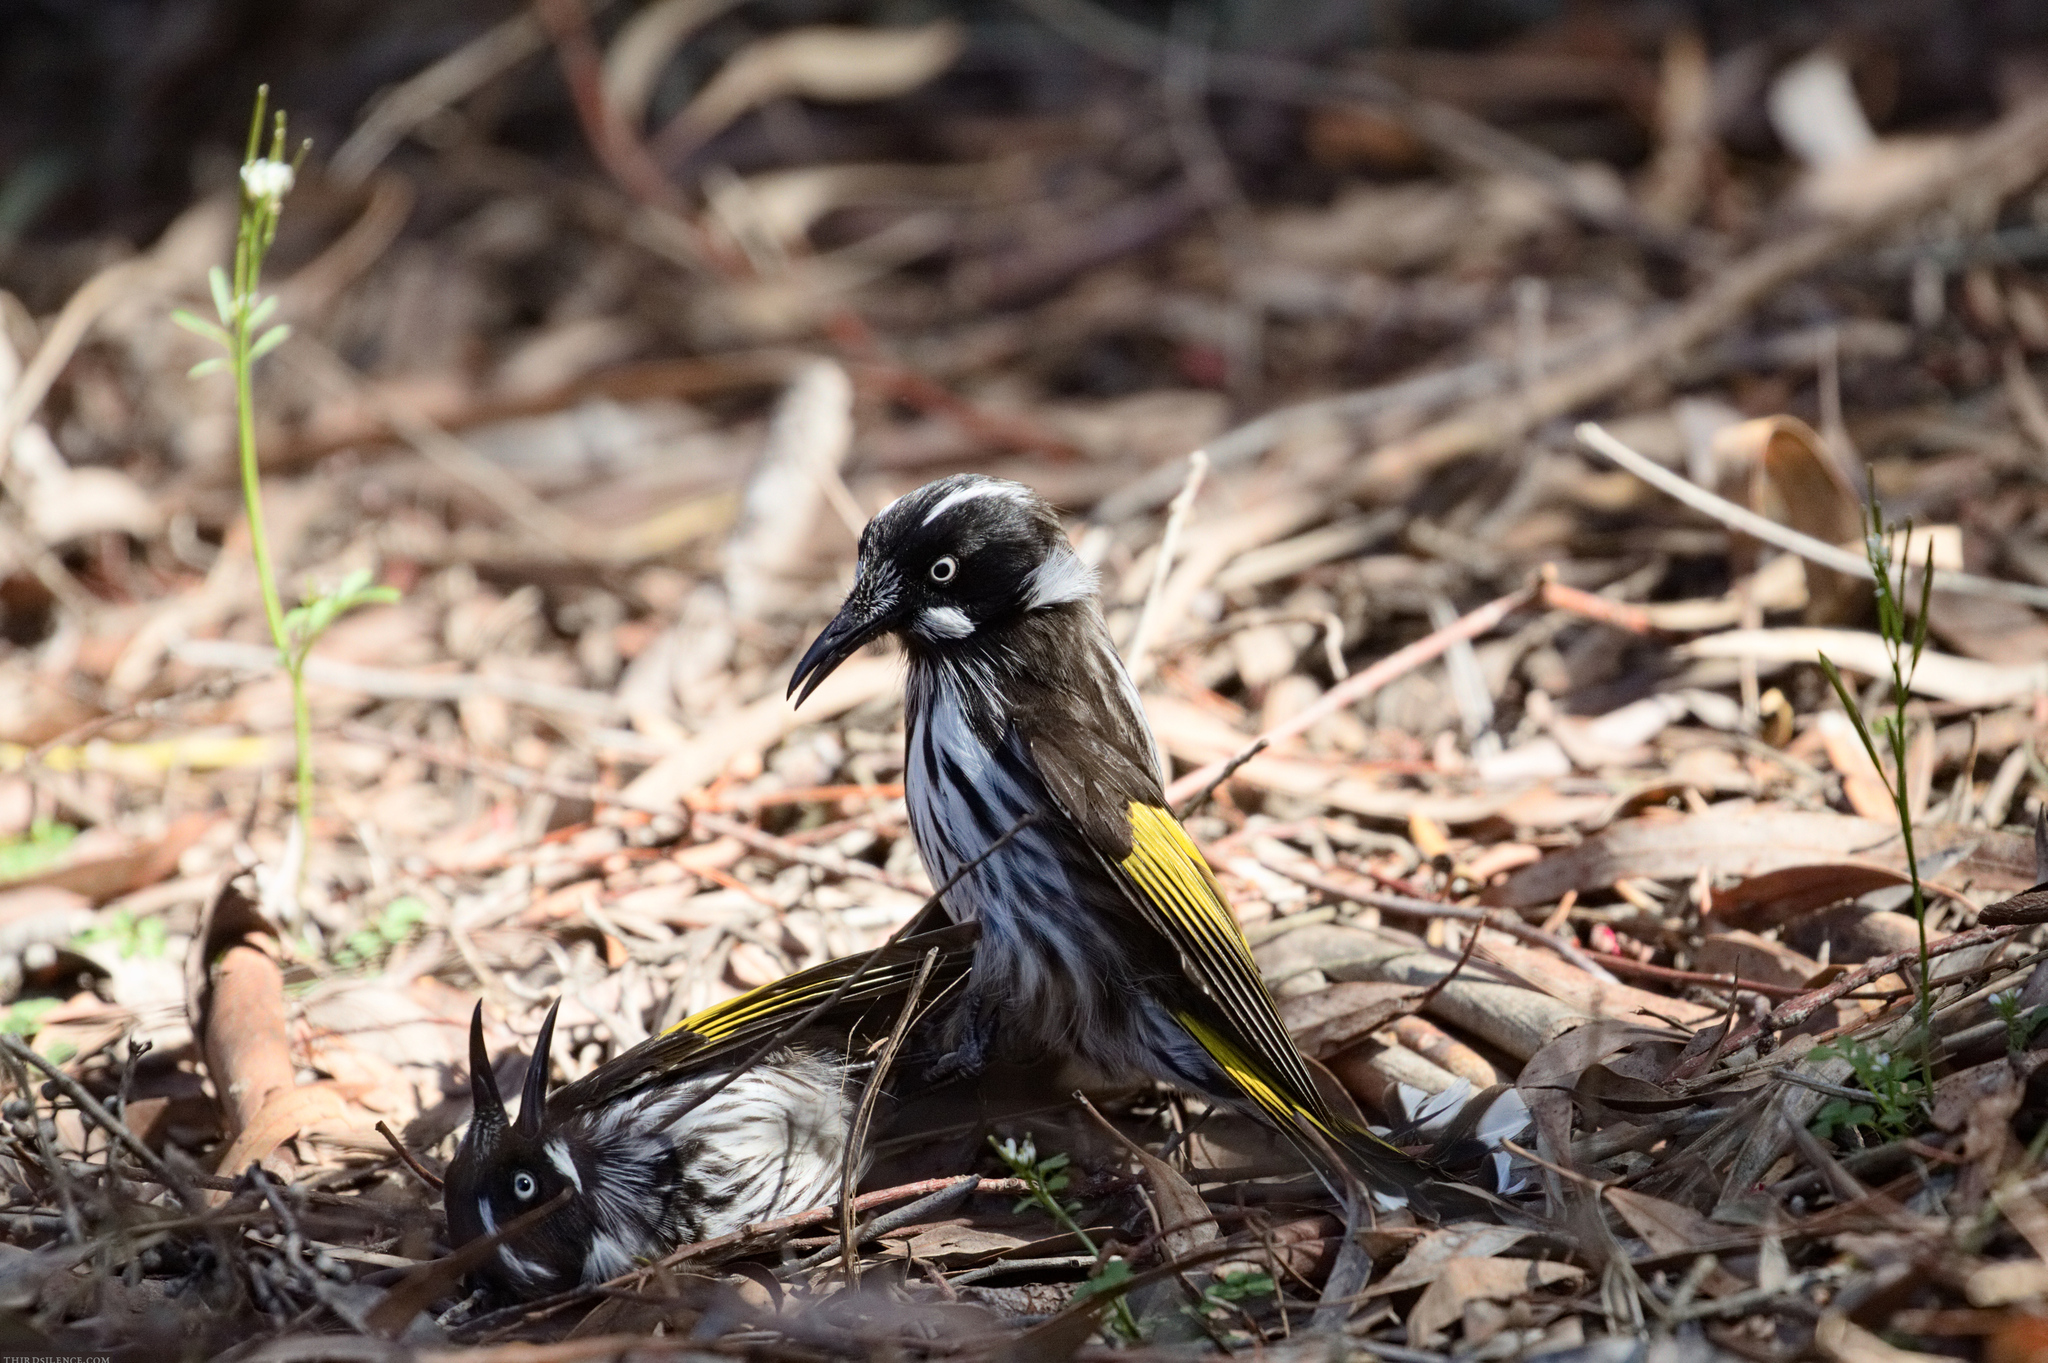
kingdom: Animalia
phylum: Chordata
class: Aves
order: Passeriformes
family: Meliphagidae
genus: Phylidonyris
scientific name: Phylidonyris novaehollandiae
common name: New holland honeyeater
